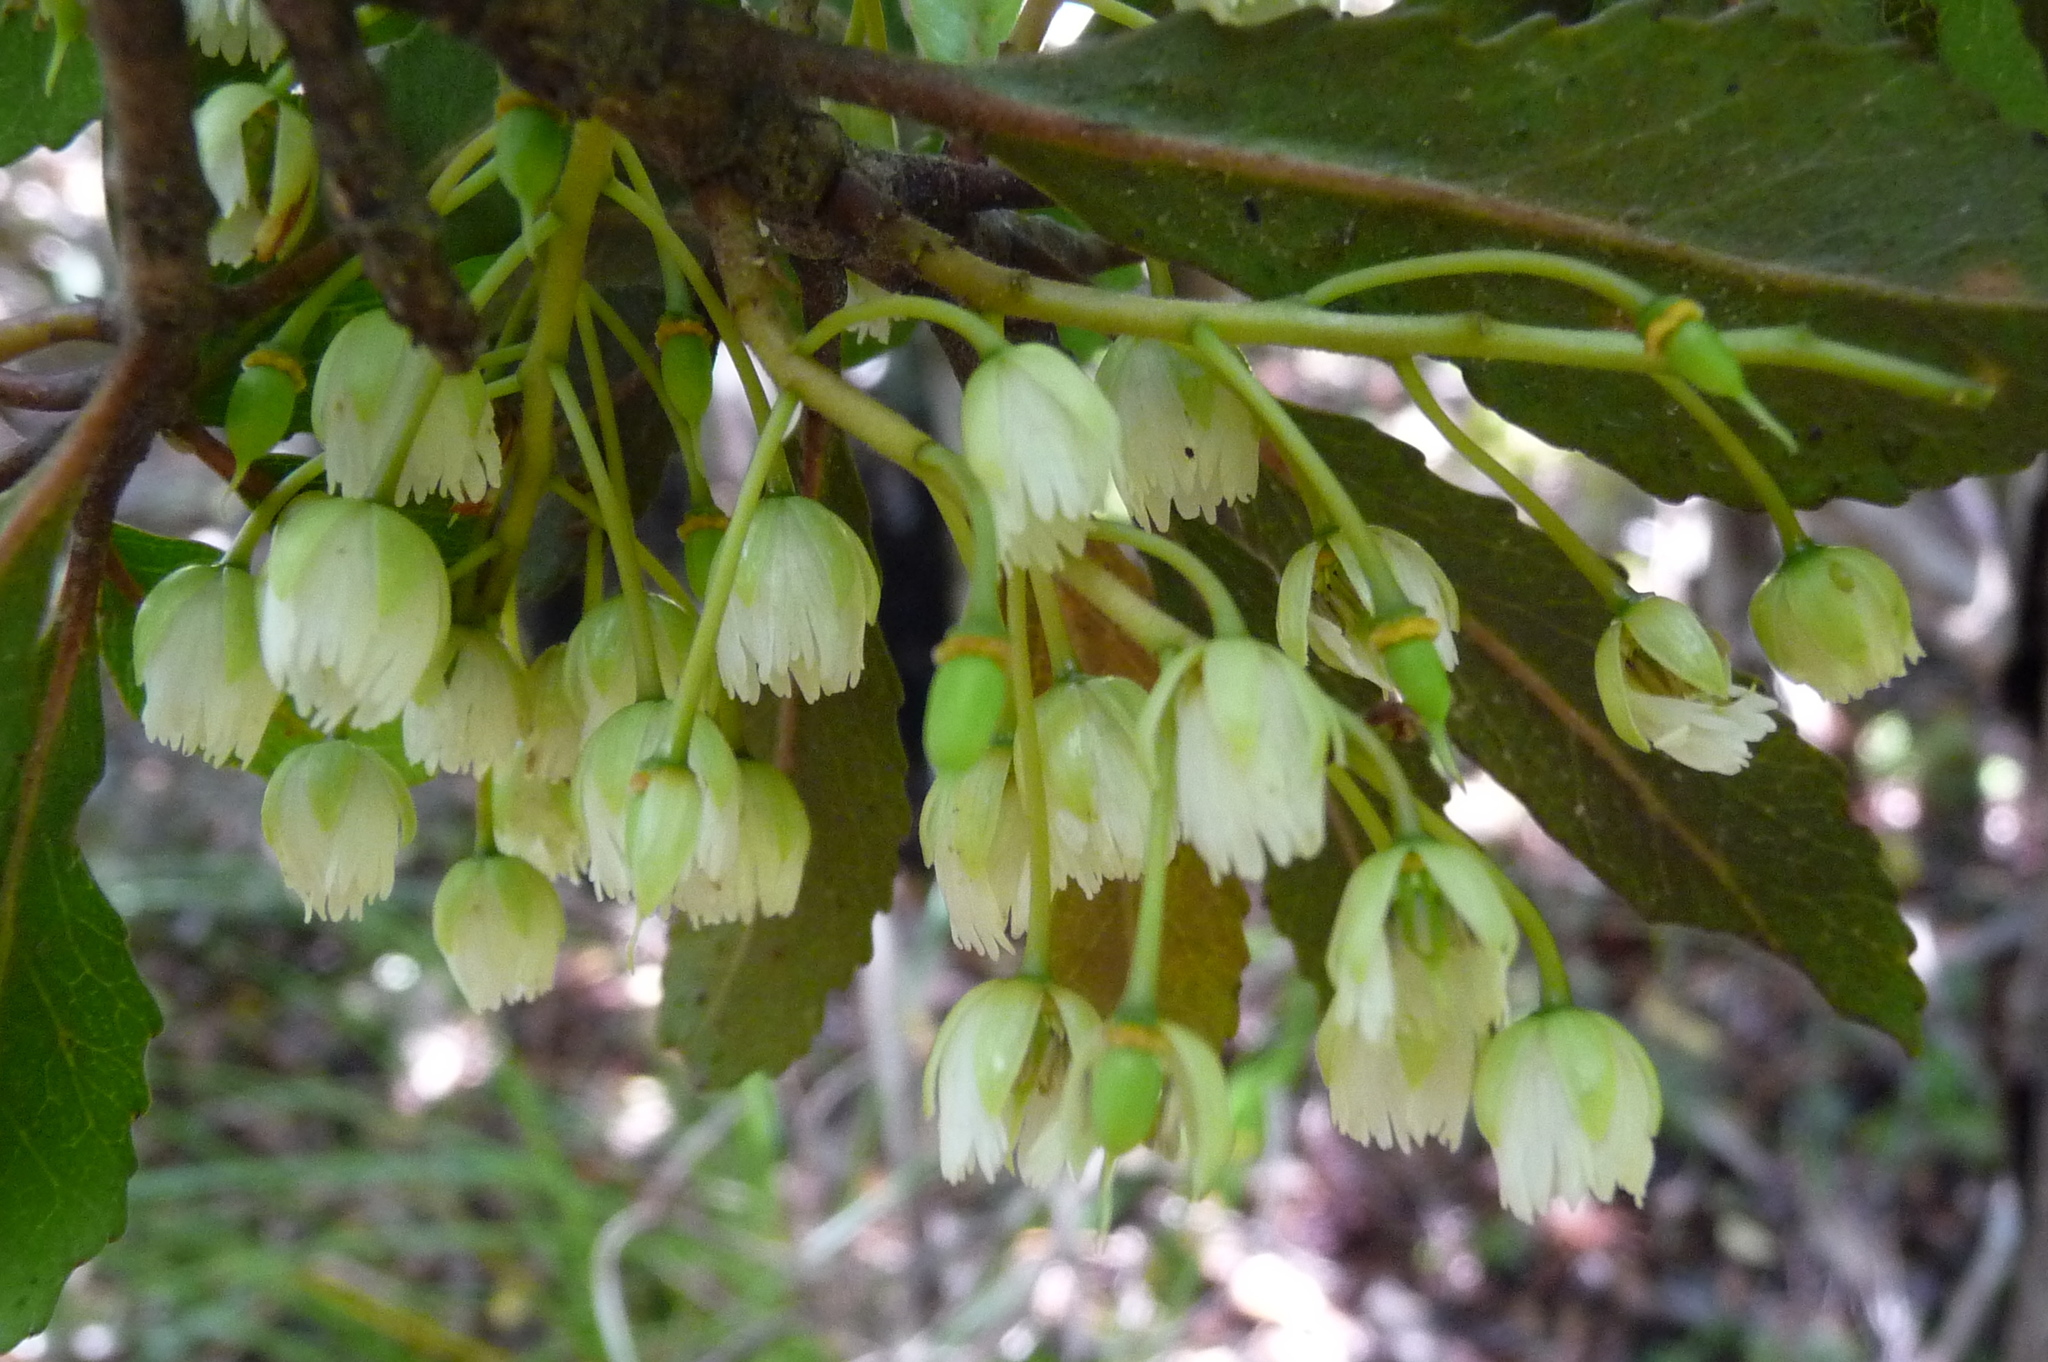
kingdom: Plantae
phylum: Tracheophyta
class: Magnoliopsida
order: Oxalidales
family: Elaeocarpaceae
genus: Elaeocarpus
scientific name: Elaeocarpus hookerianus
